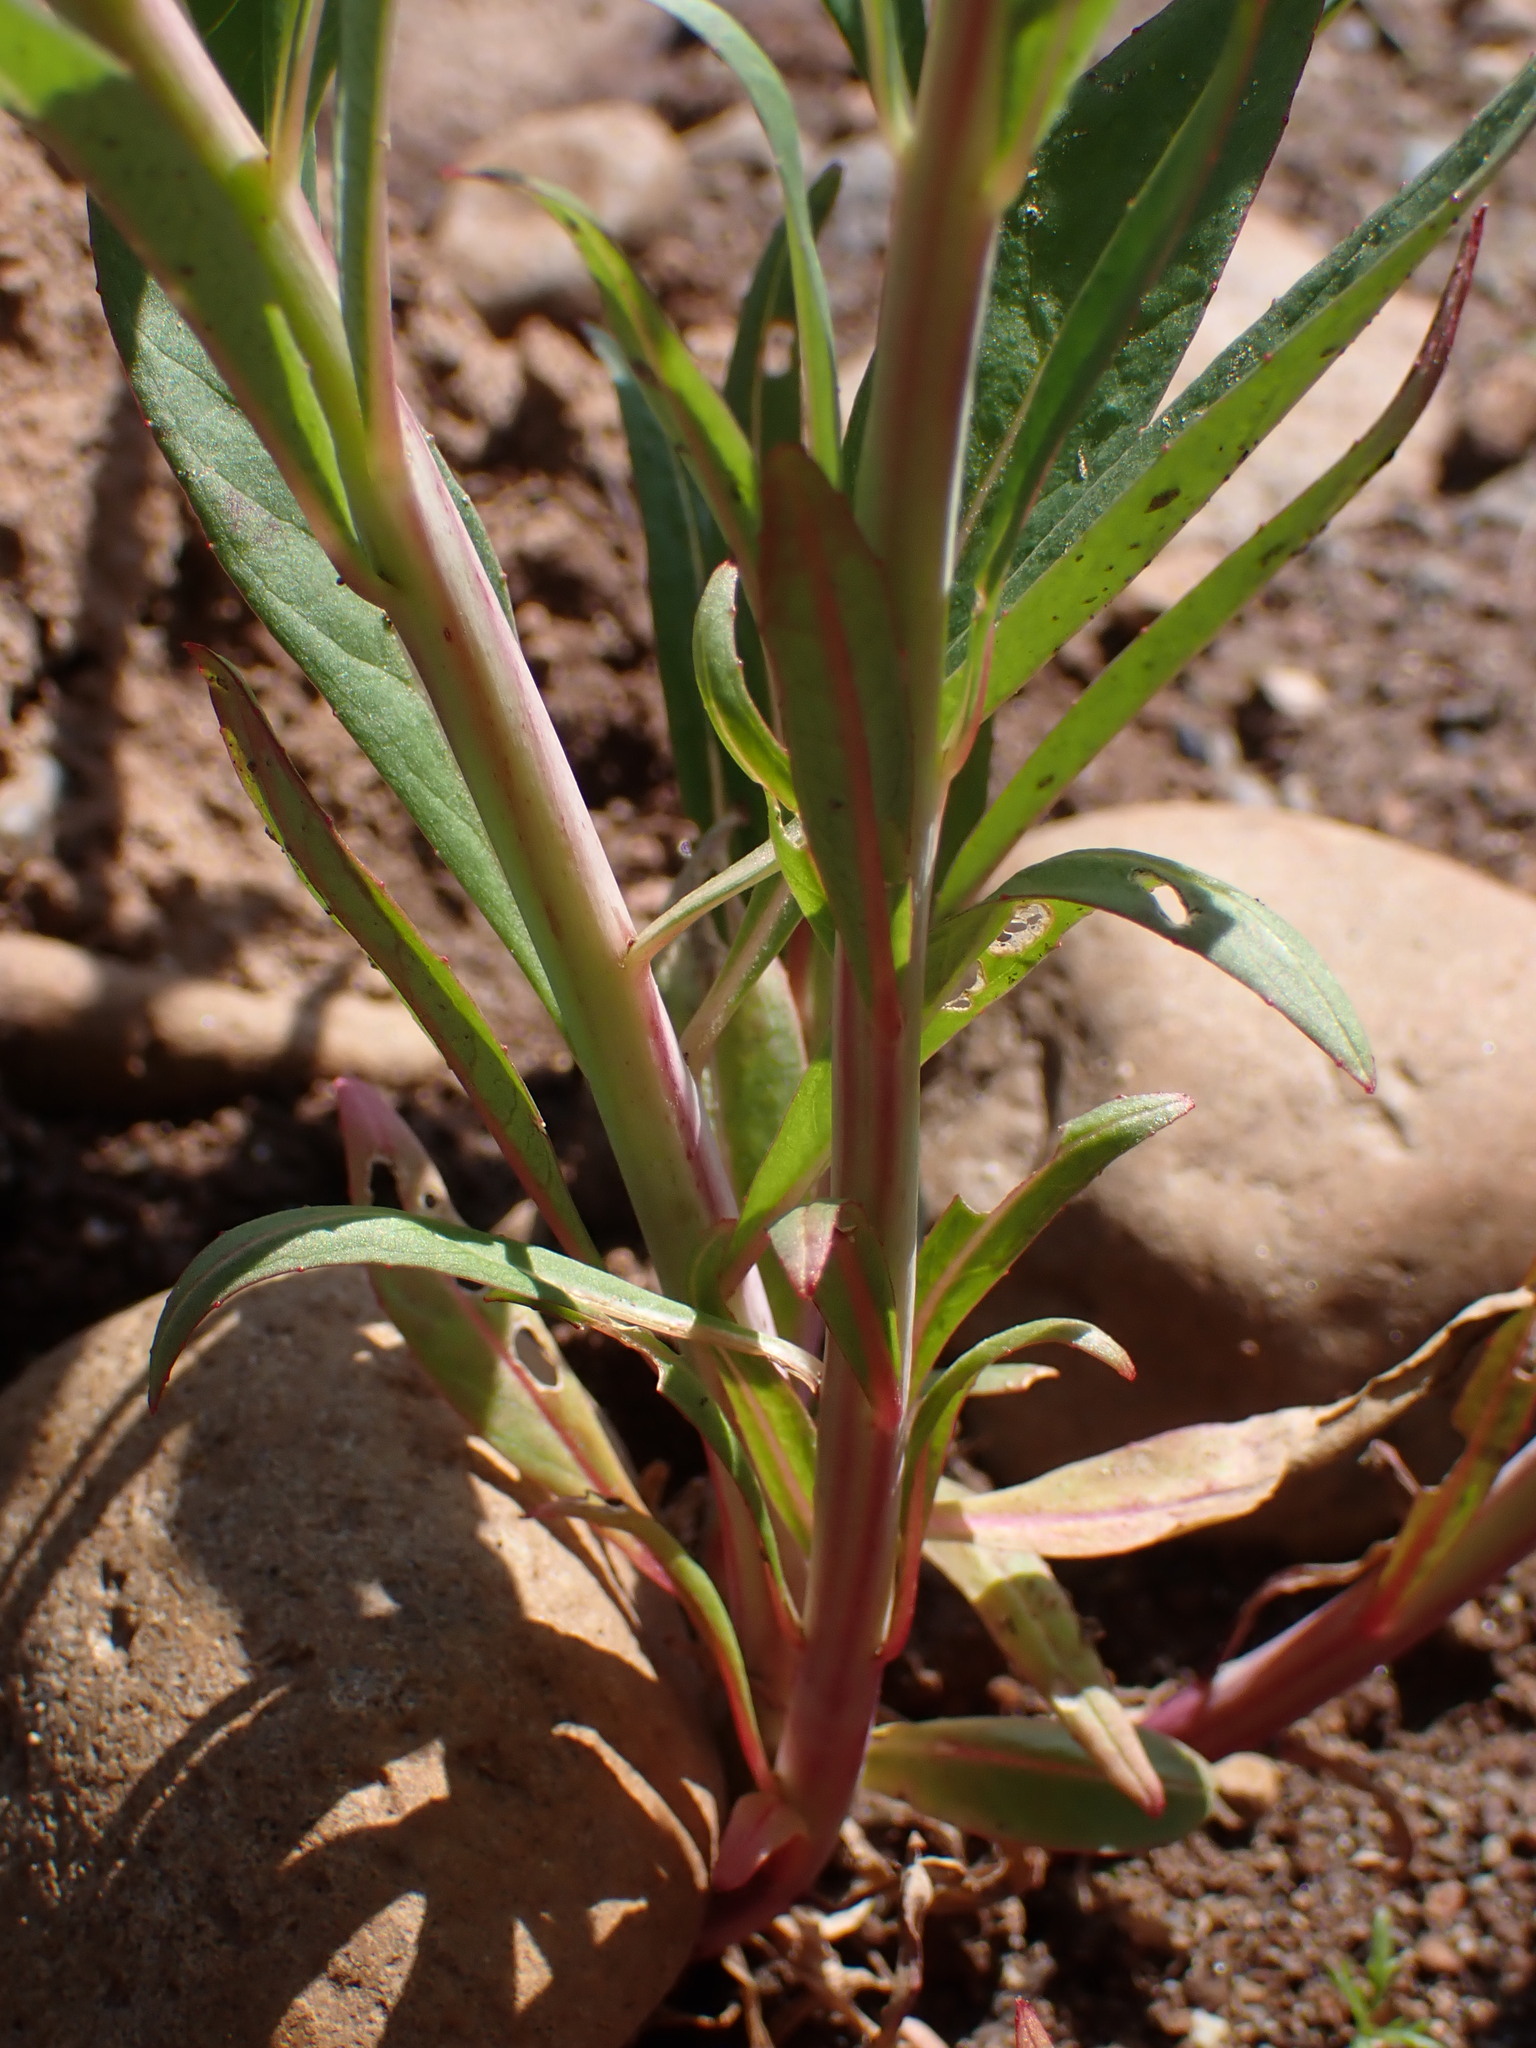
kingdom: Plantae
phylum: Tracheophyta
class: Magnoliopsida
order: Myrtales
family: Onagraceae
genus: Chamaenerion
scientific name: Chamaenerion angustifolium
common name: Fireweed
